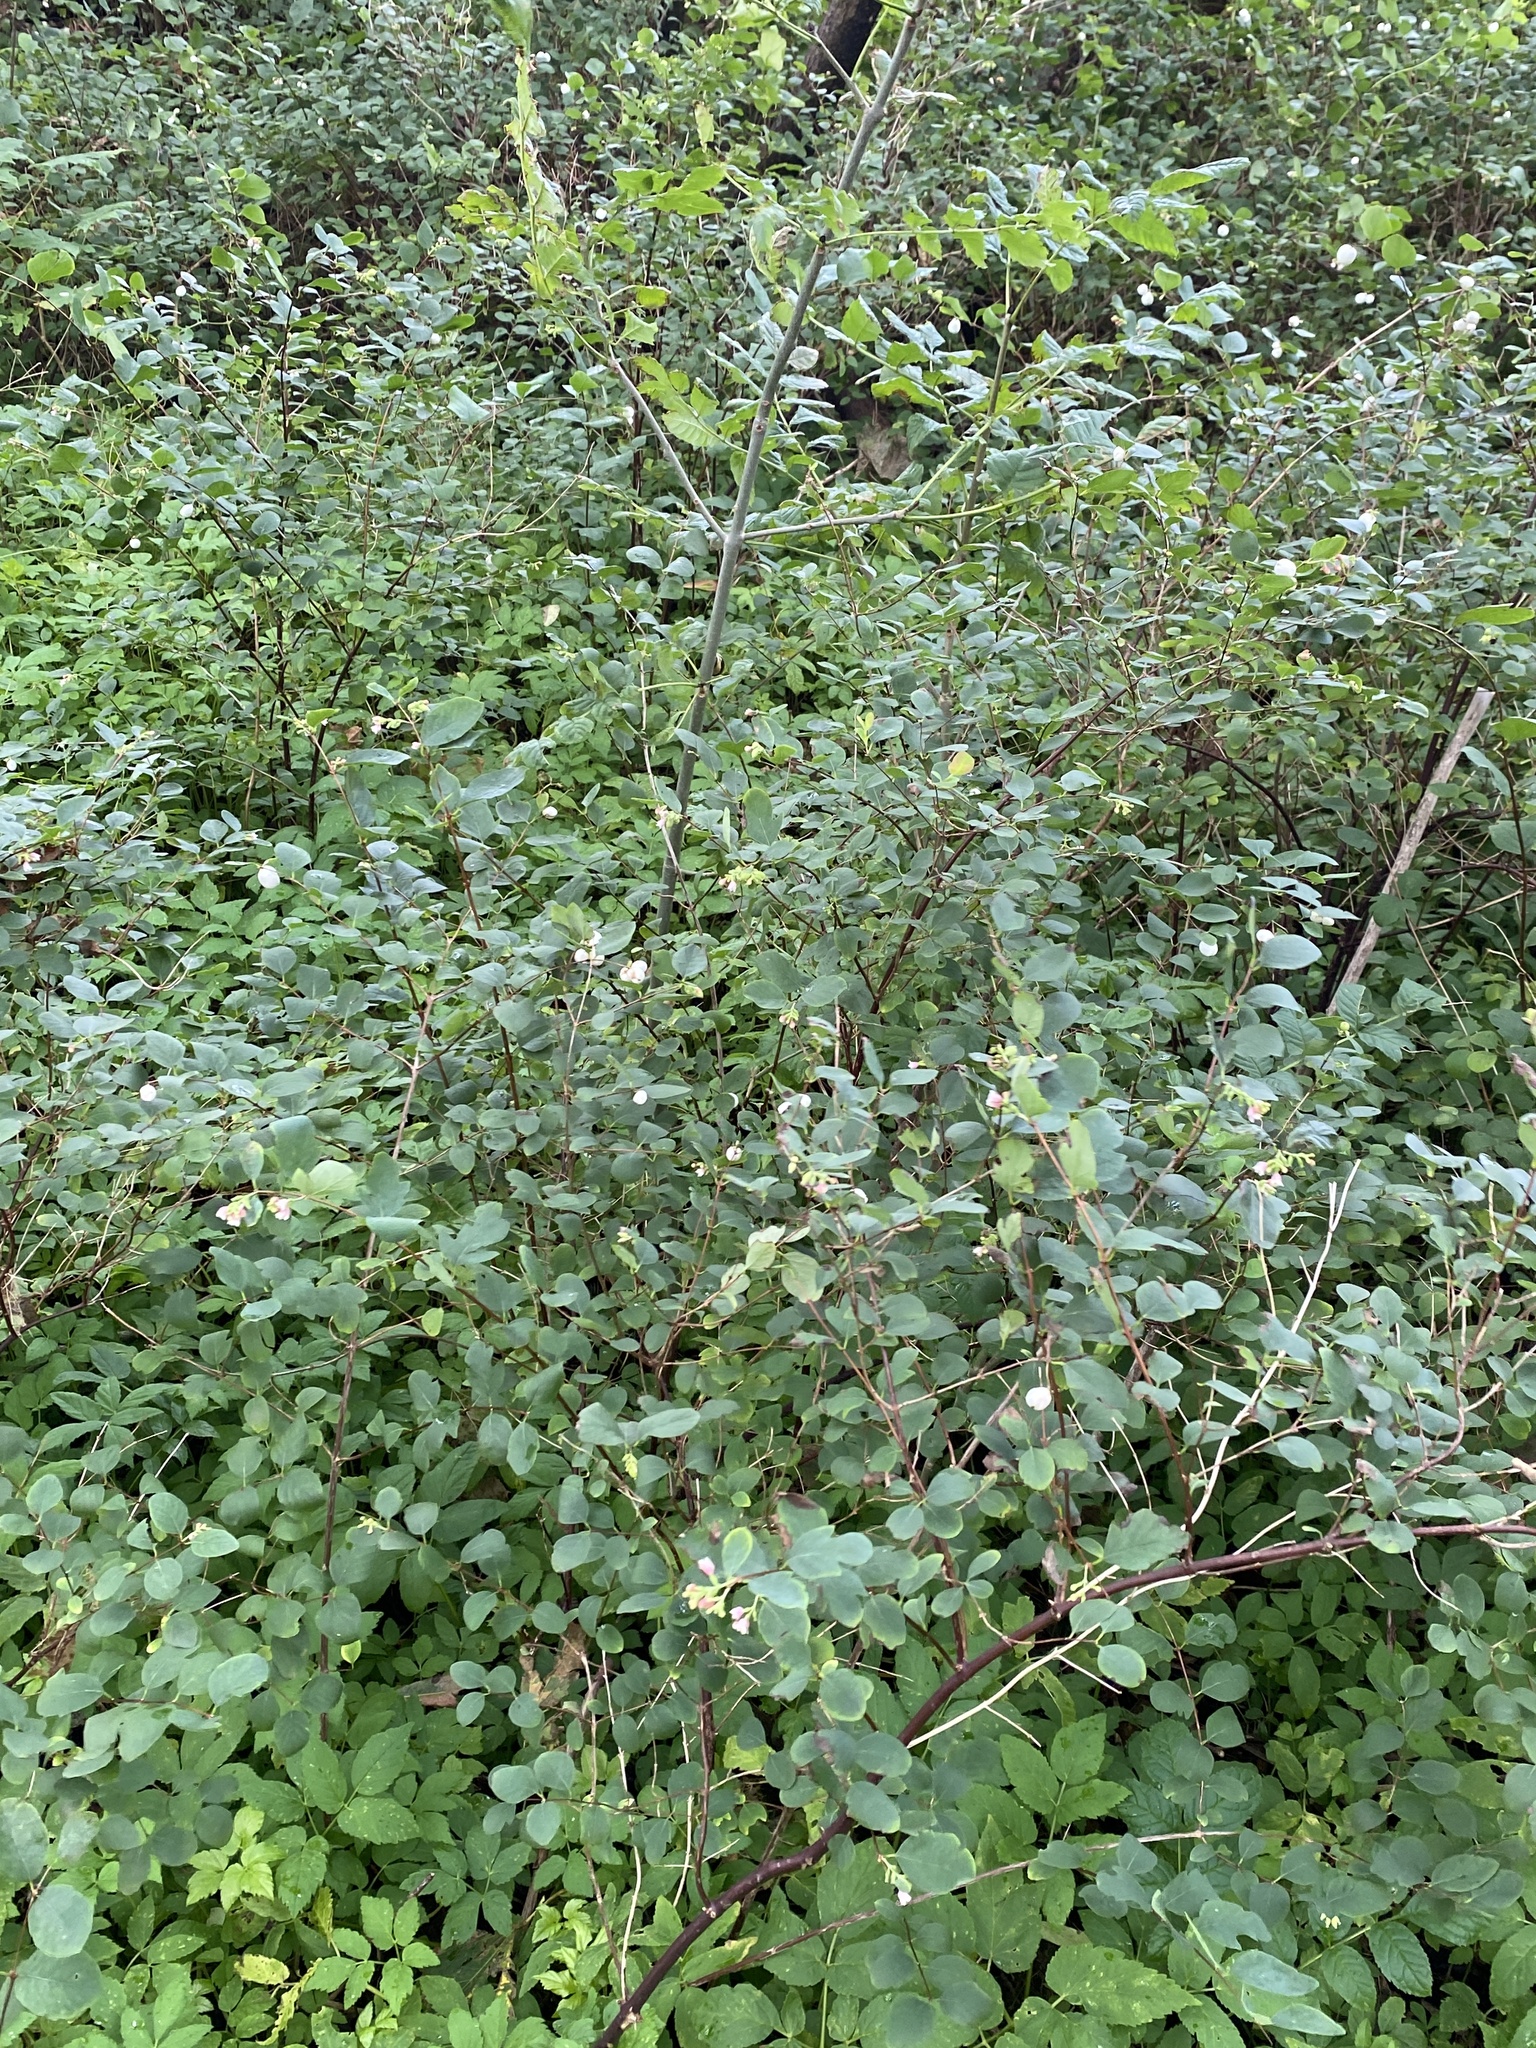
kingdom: Plantae
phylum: Tracheophyta
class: Magnoliopsida
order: Dipsacales
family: Caprifoliaceae
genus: Symphoricarpos
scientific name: Symphoricarpos albus
